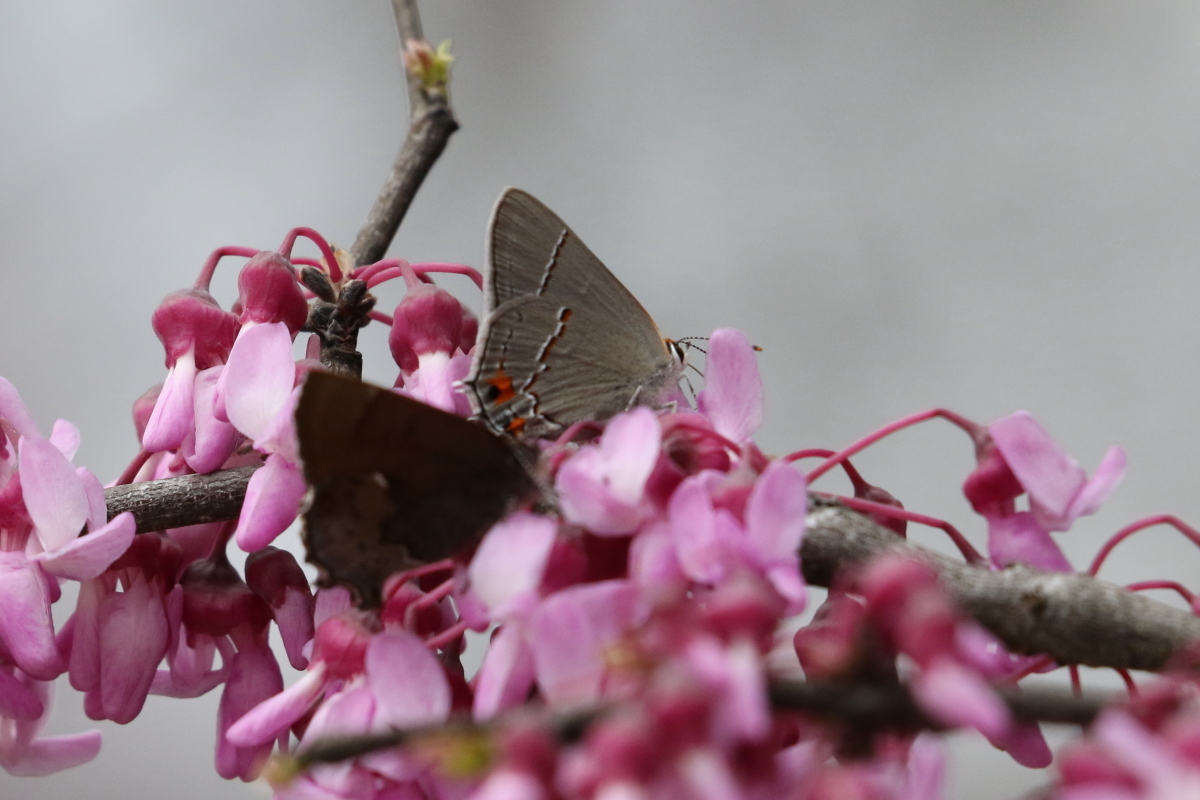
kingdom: Animalia
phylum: Arthropoda
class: Insecta
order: Lepidoptera
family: Lycaenidae
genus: Strymon
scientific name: Strymon melinus
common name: Gray hairstreak
